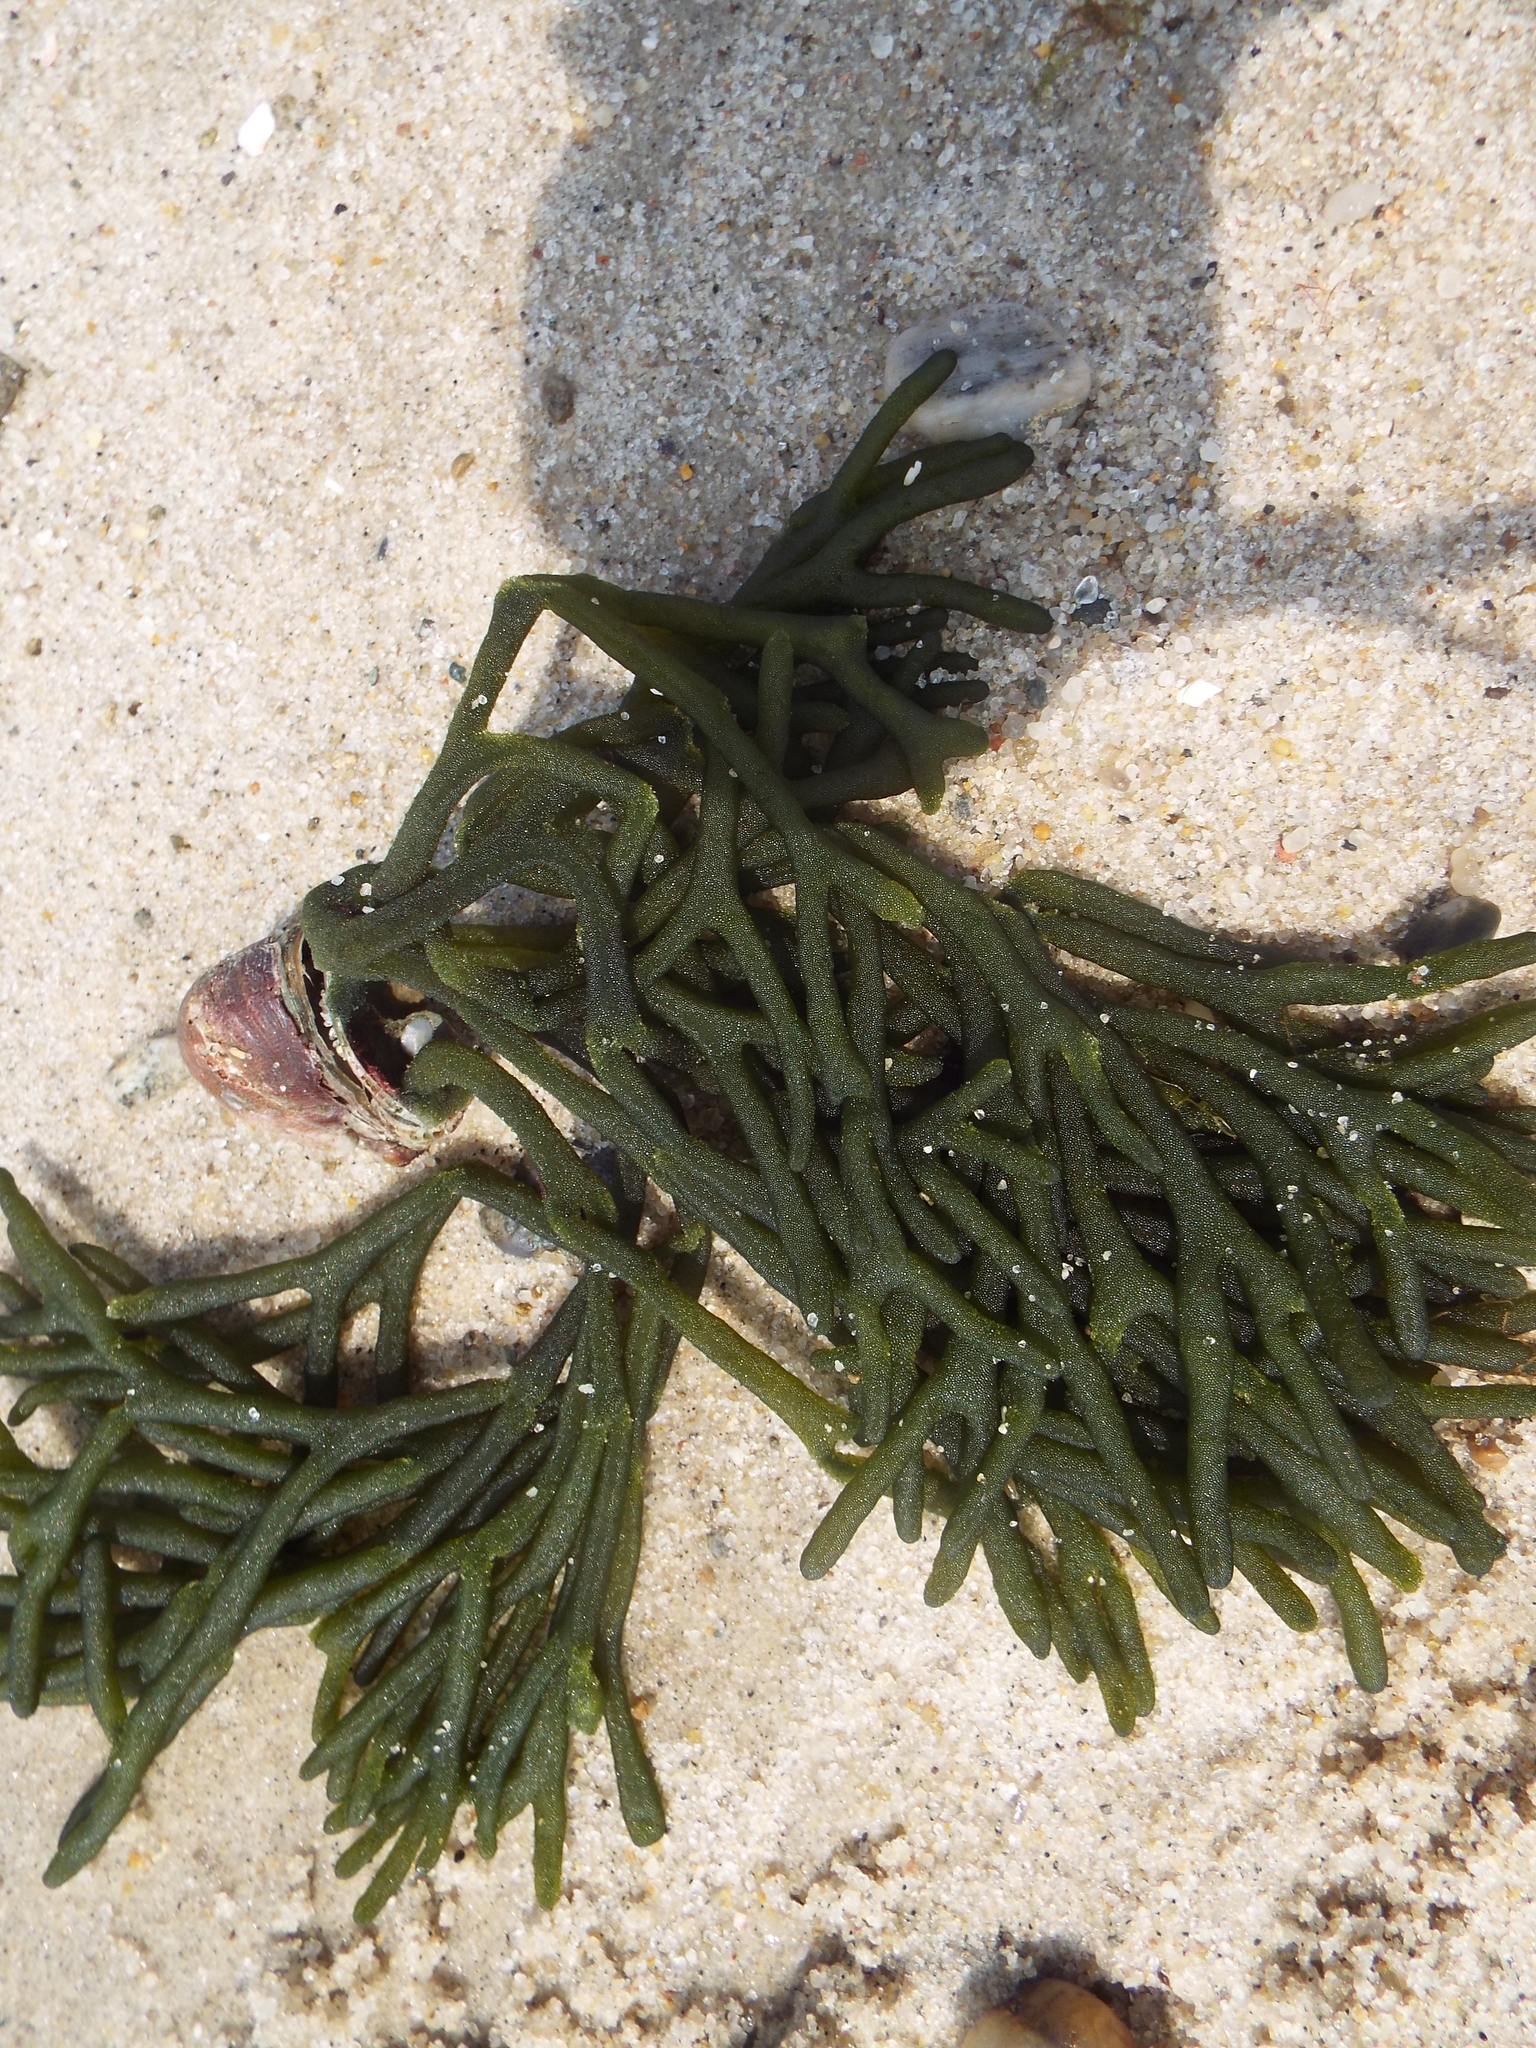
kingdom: Plantae
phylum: Chlorophyta
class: Ulvophyceae
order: Bryopsidales
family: Codiaceae
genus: Codium
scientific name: Codium fragile
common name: Dead man's fingers
